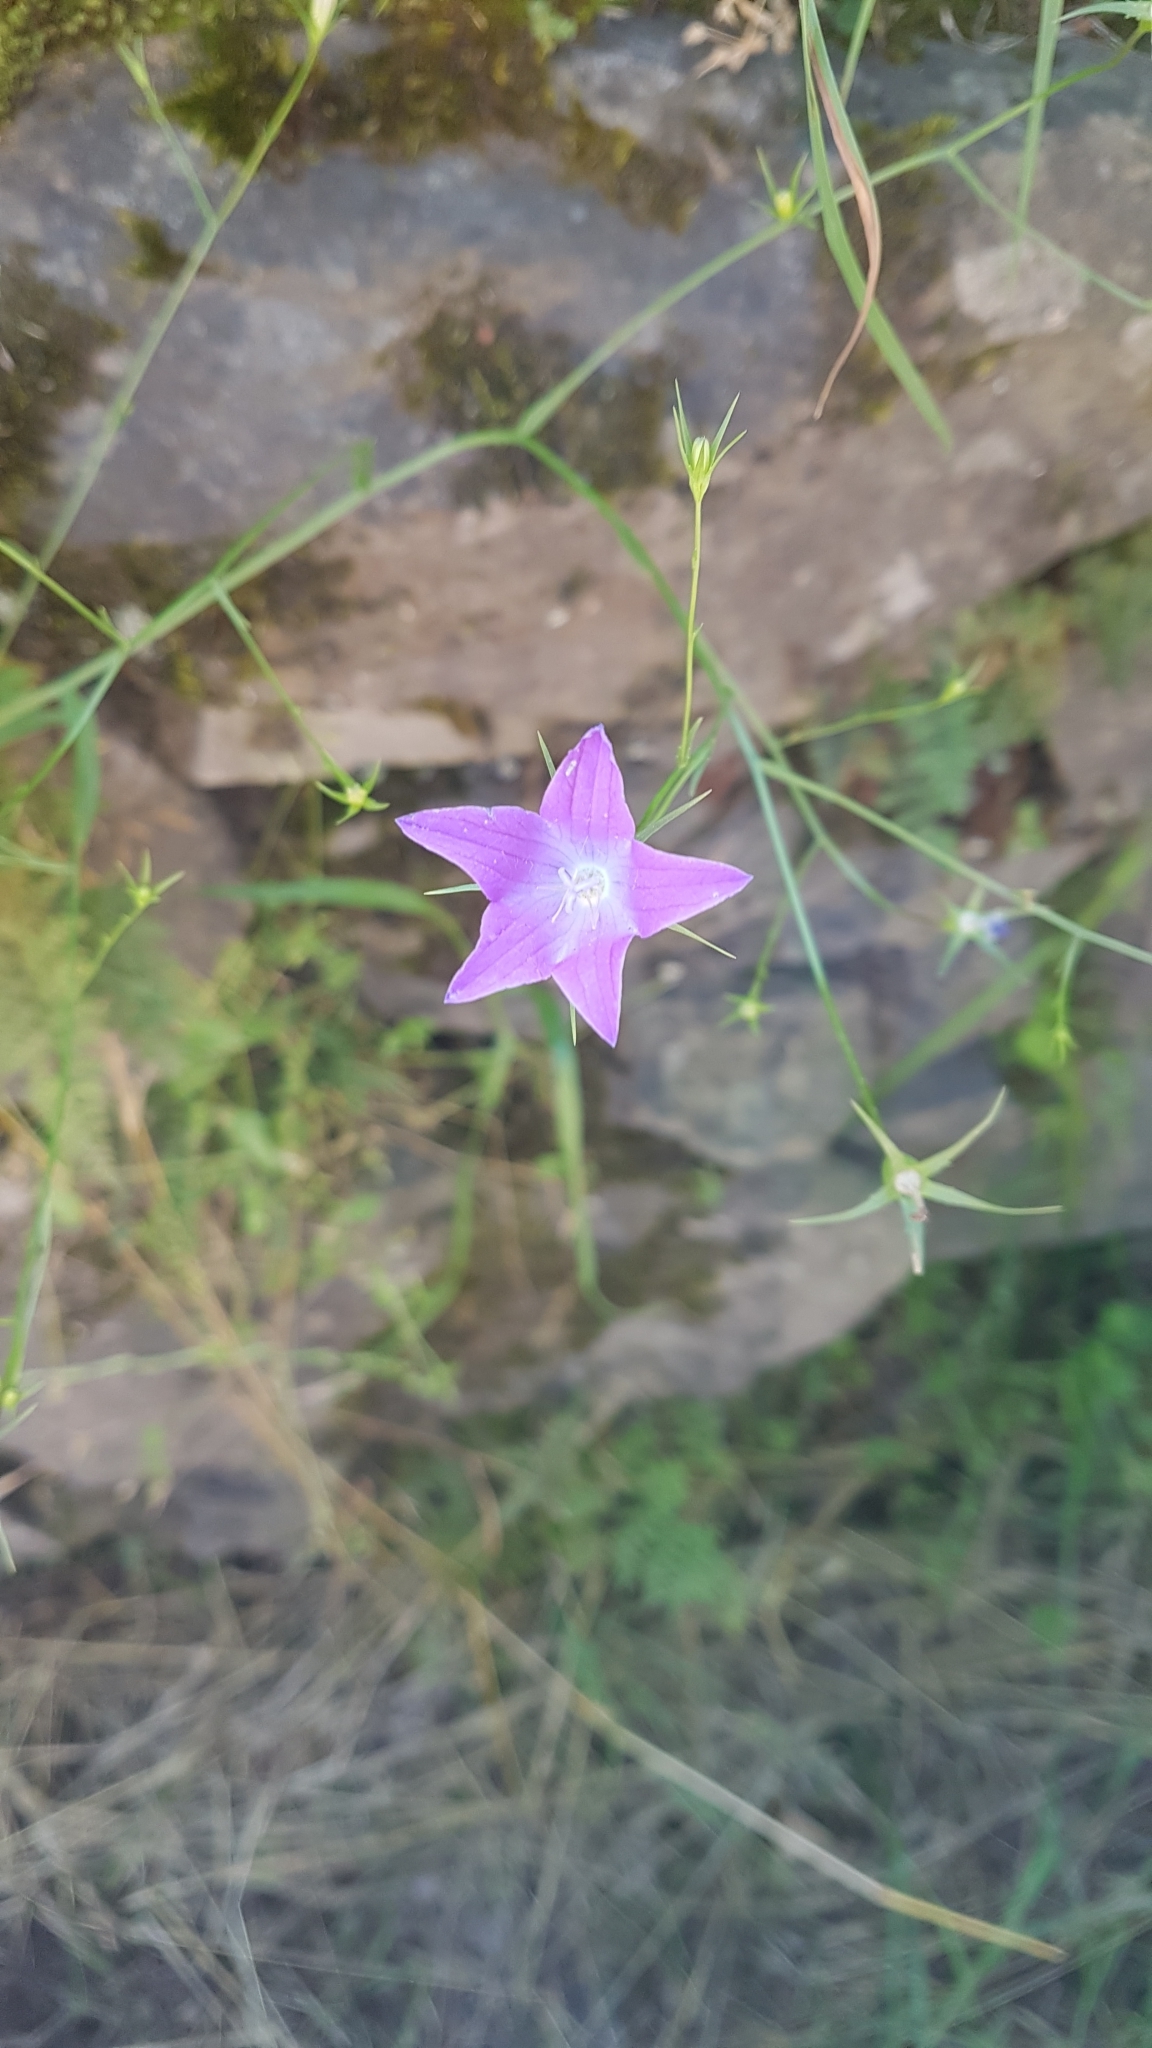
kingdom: Plantae
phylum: Tracheophyta
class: Magnoliopsida
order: Asterales
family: Campanulaceae
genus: Campanula
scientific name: Campanula patula
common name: Spreading bellflower
